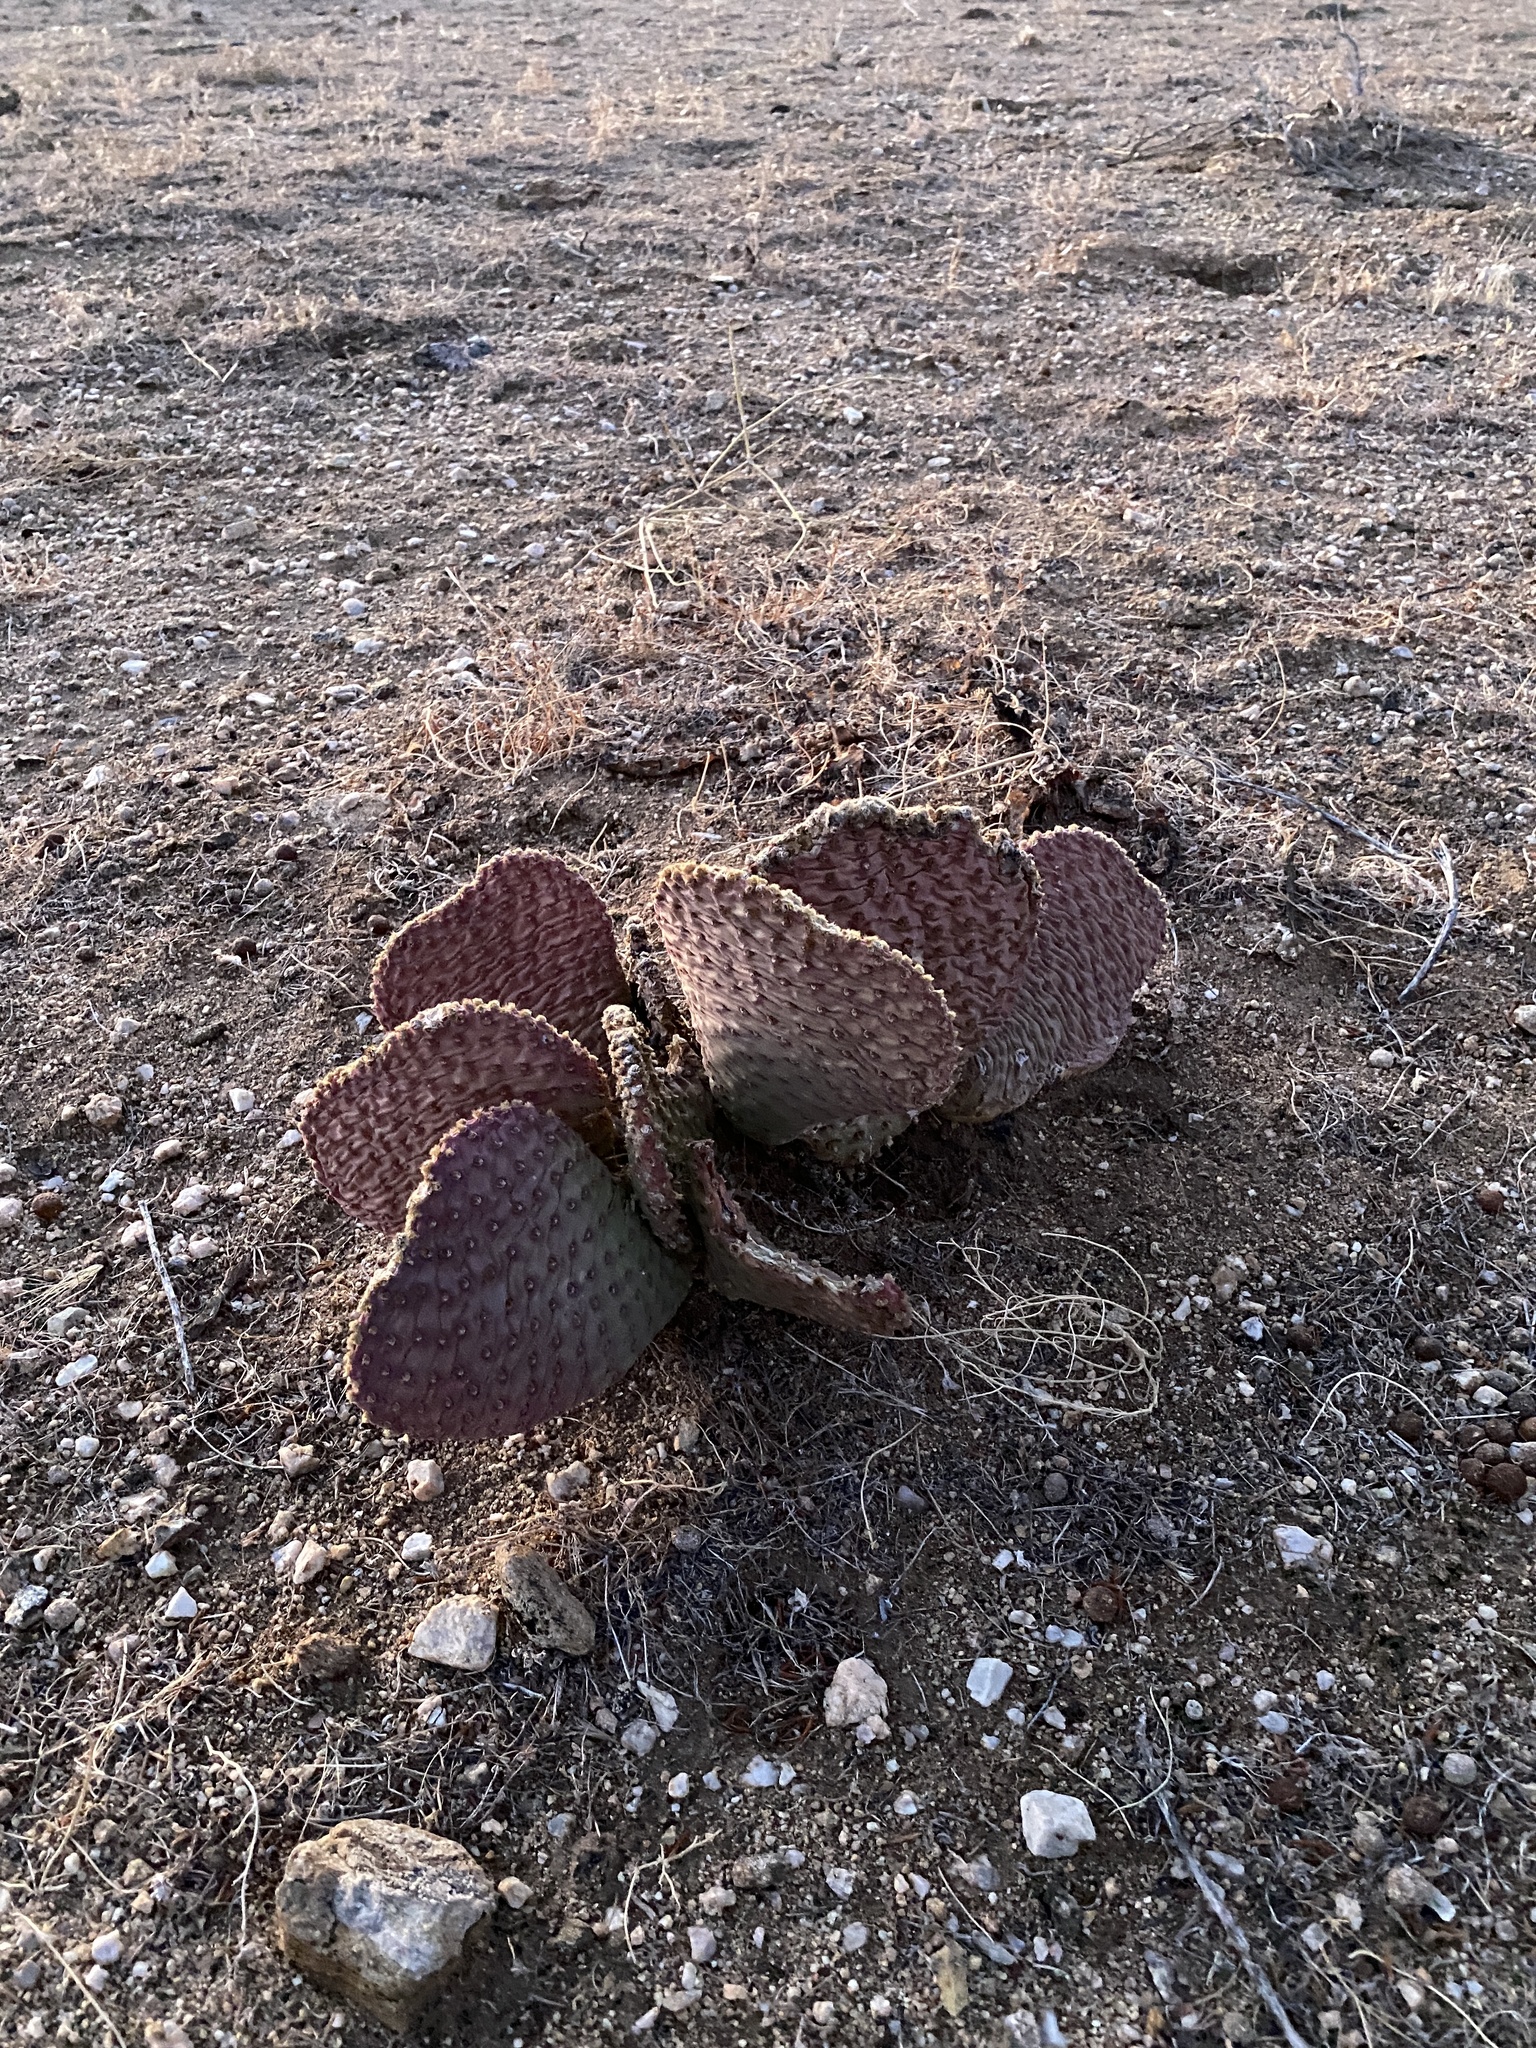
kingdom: Plantae
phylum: Tracheophyta
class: Magnoliopsida
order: Caryophyllales
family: Cactaceae
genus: Opuntia
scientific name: Opuntia basilaris
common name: Beavertail prickly-pear
